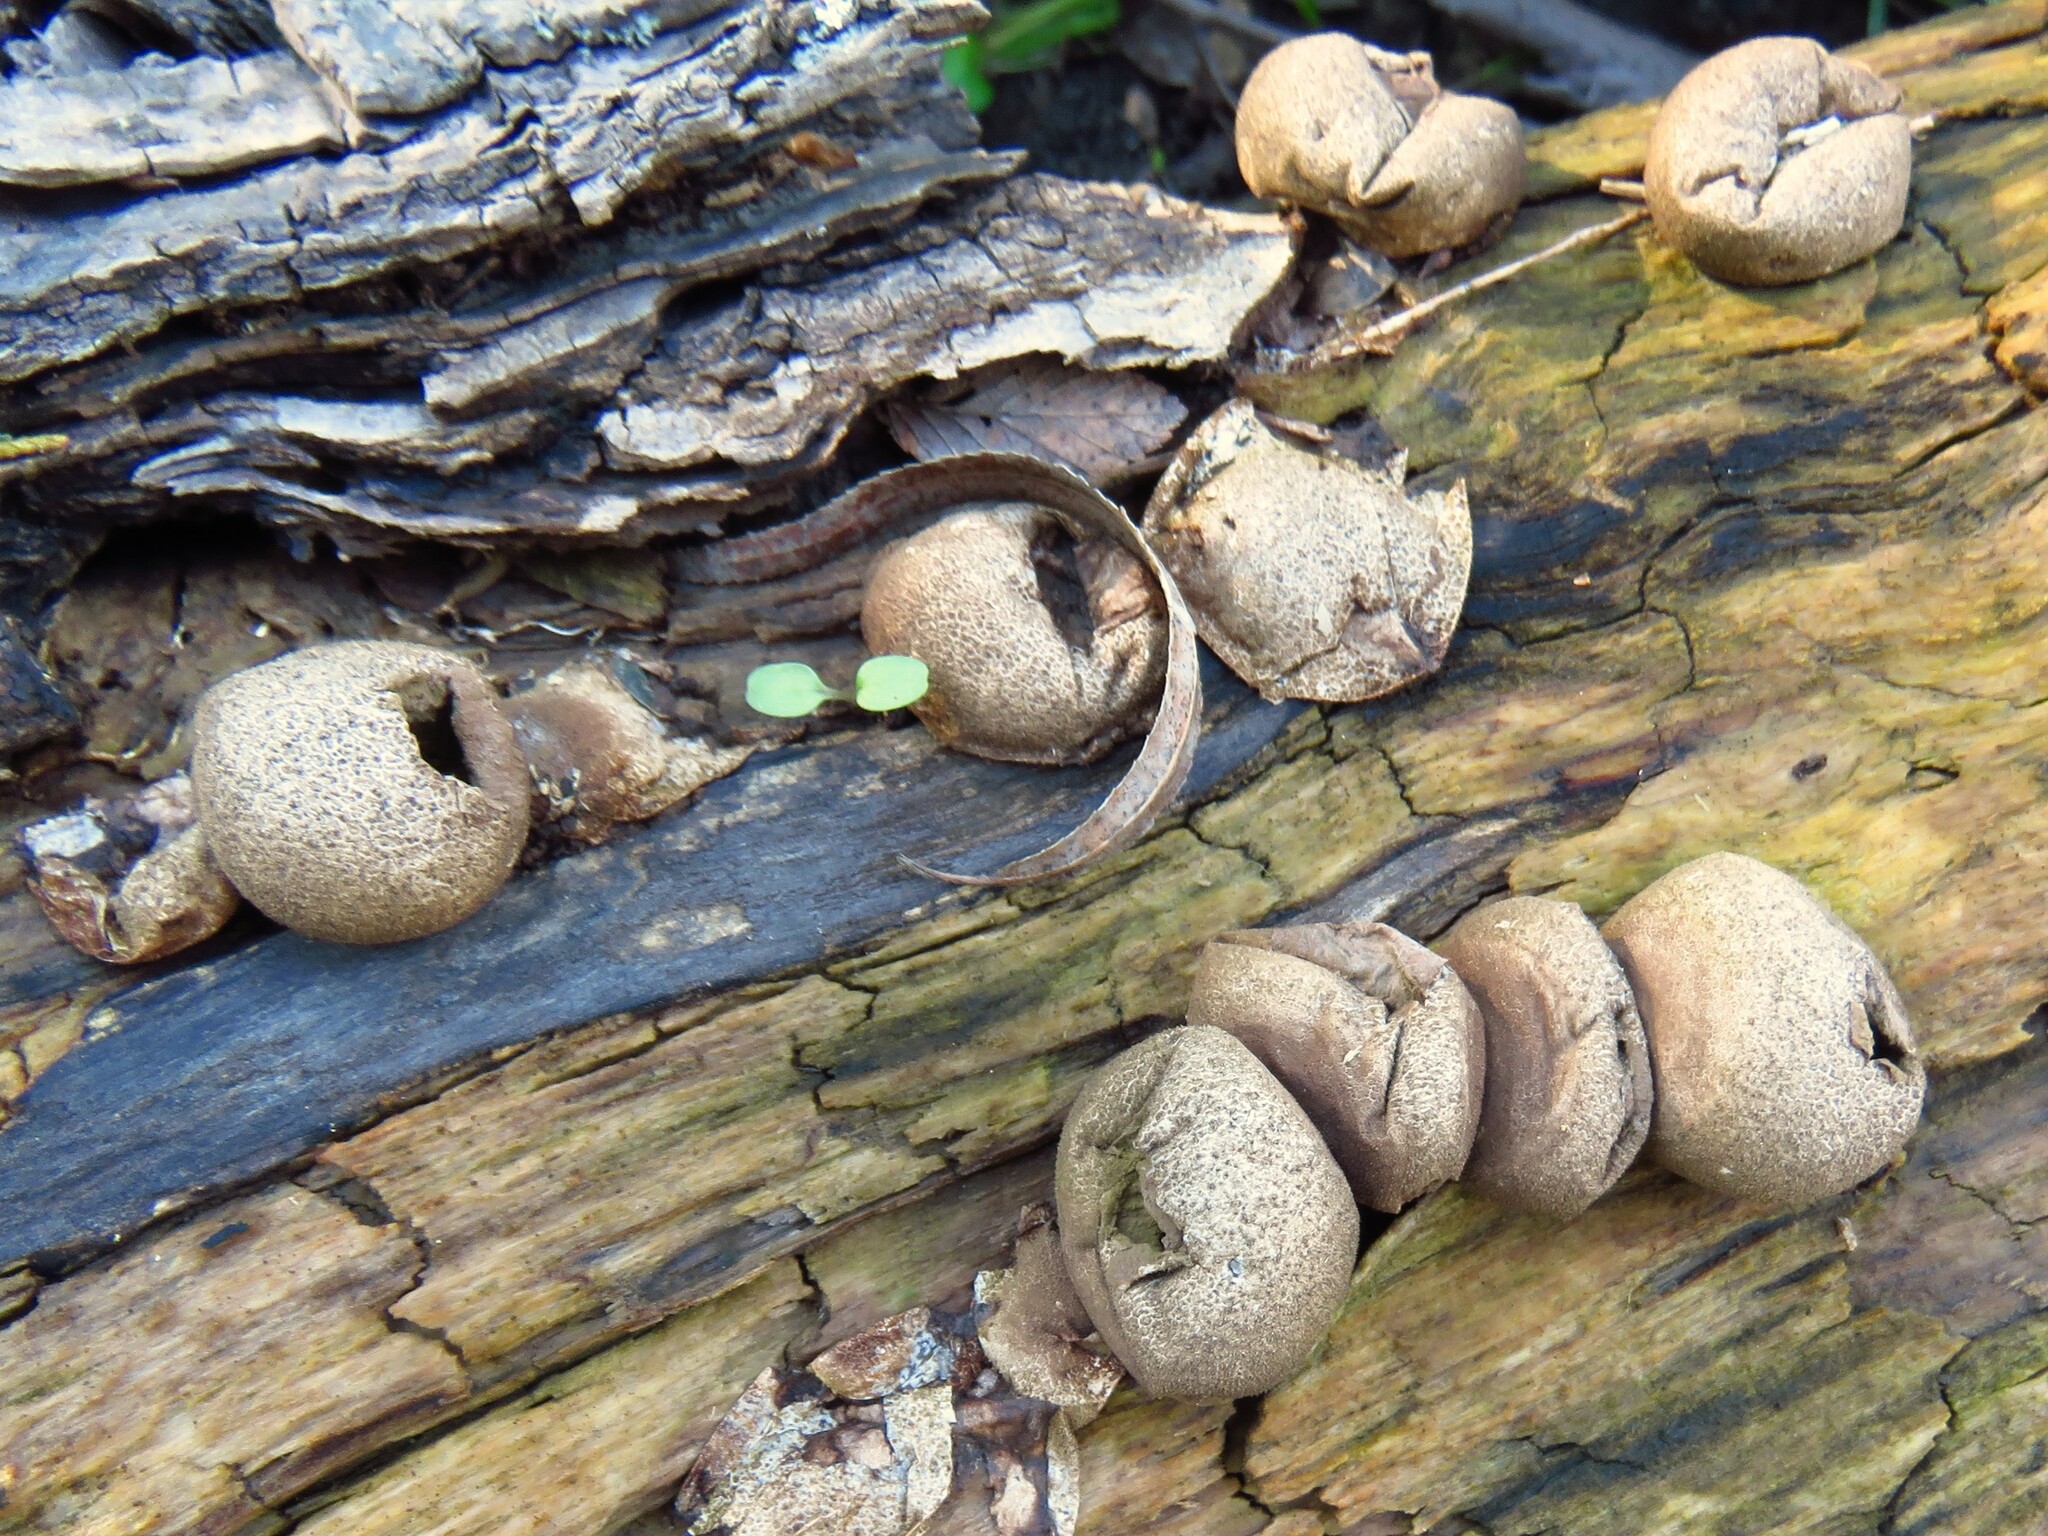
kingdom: Fungi
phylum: Basidiomycota
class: Agaricomycetes
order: Agaricales
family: Lycoperdaceae
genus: Apioperdon
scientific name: Apioperdon pyriforme
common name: Pear-shaped puffball
